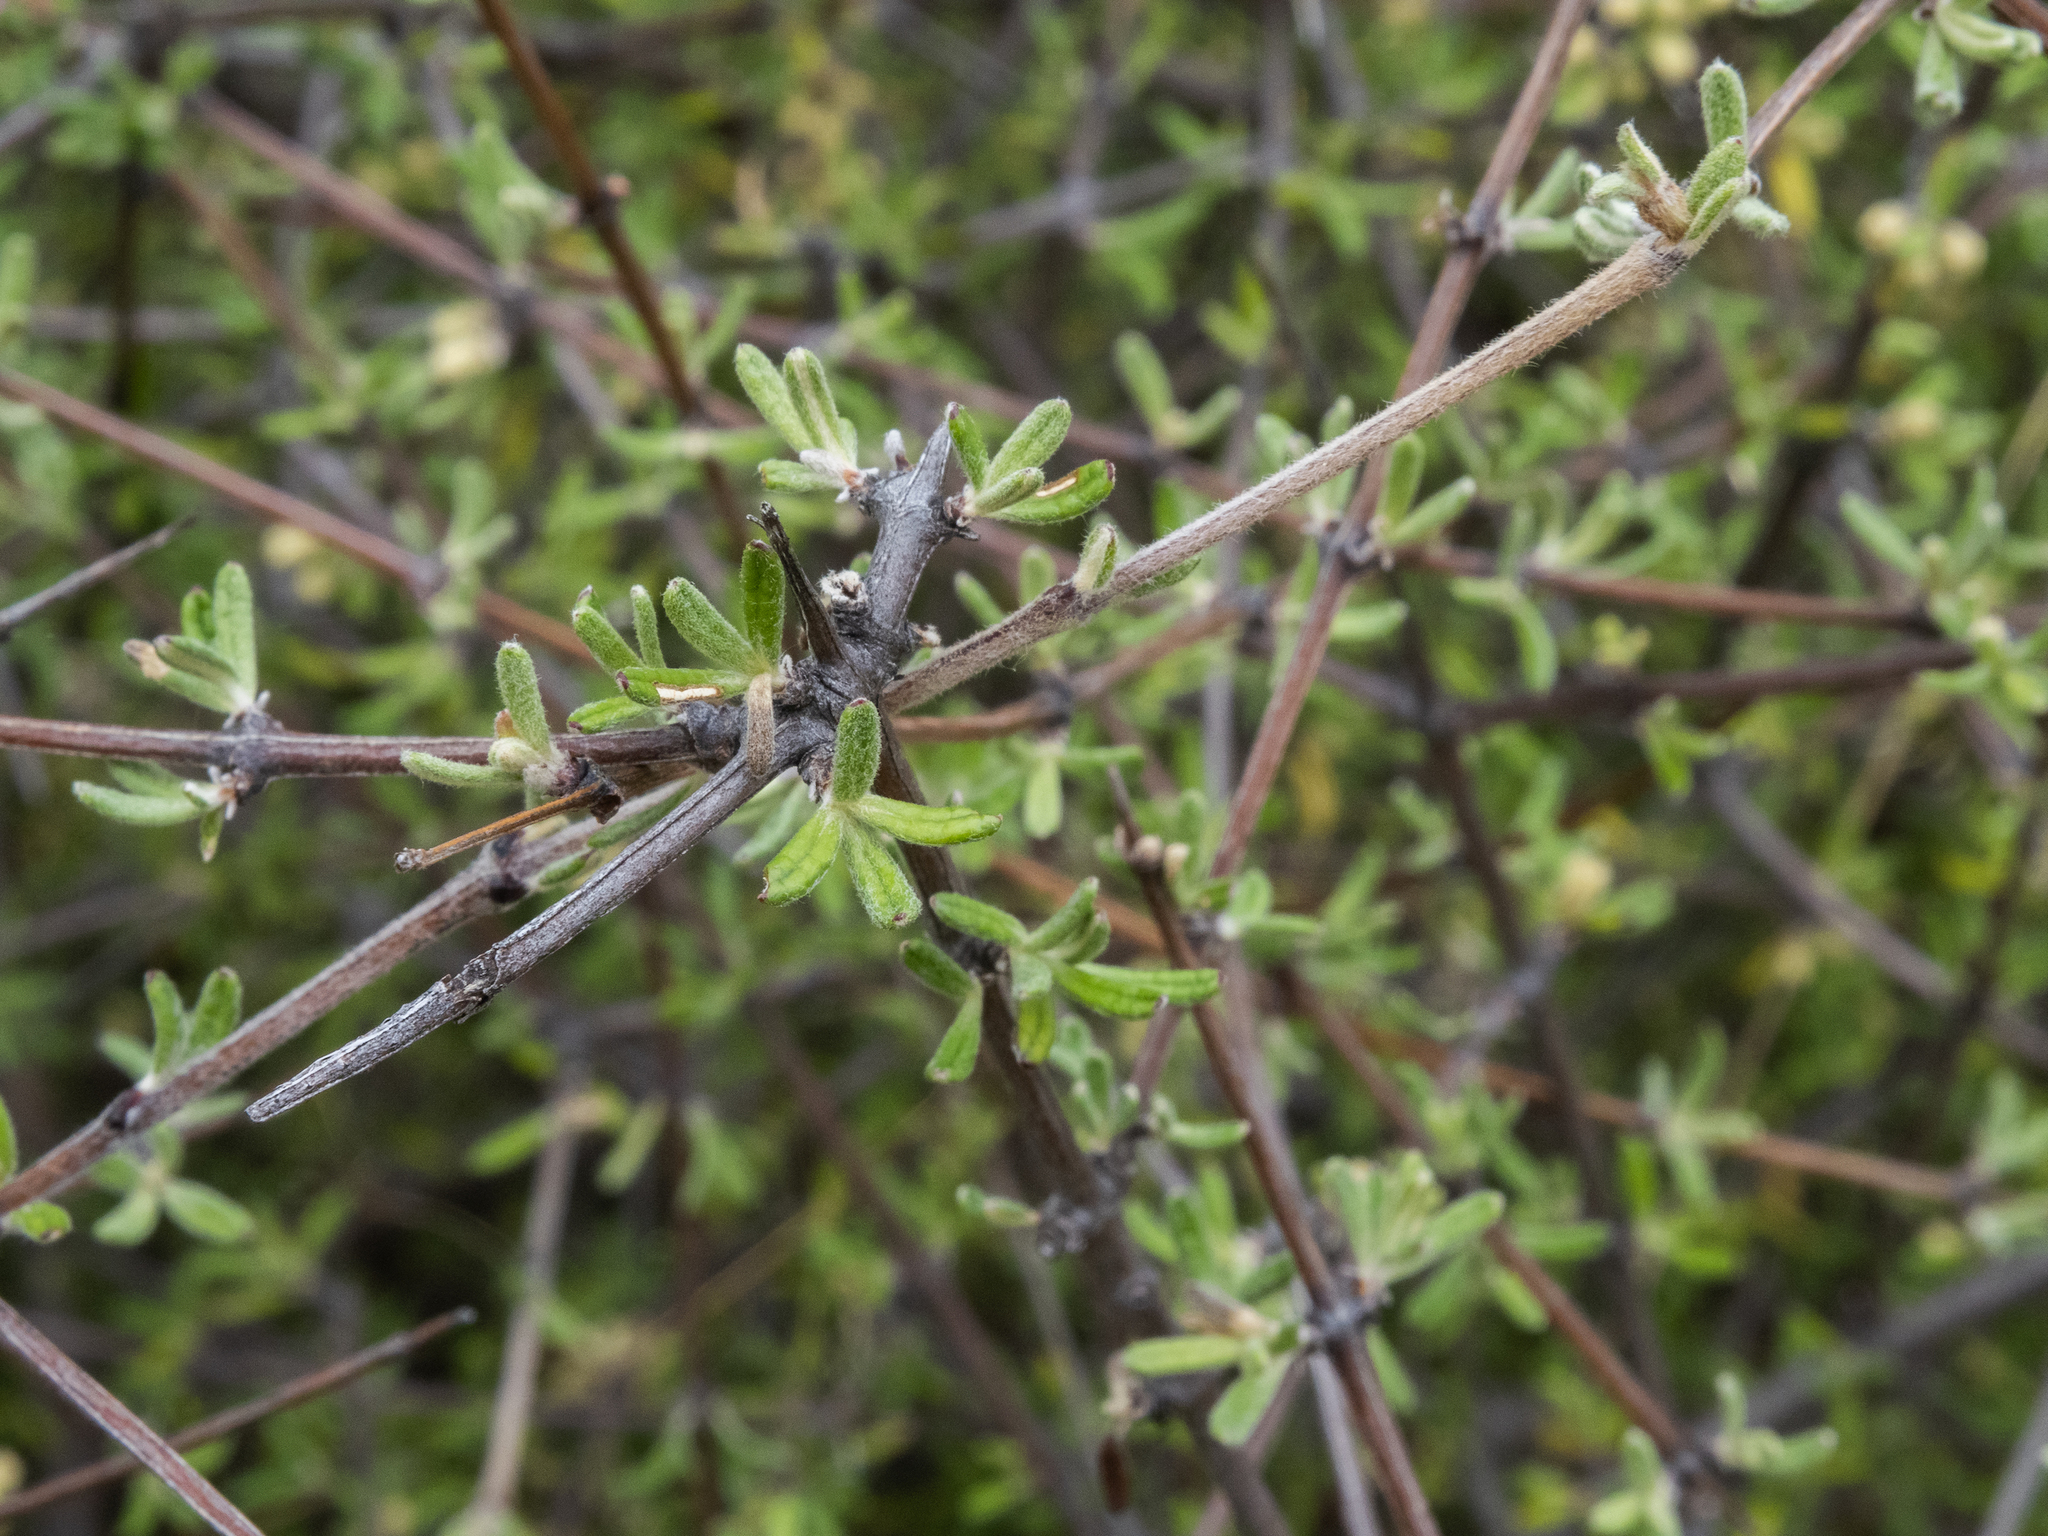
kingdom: Plantae
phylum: Tracheophyta
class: Magnoliopsida
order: Asterales
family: Asteraceae
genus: Olearia
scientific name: Olearia bullata
